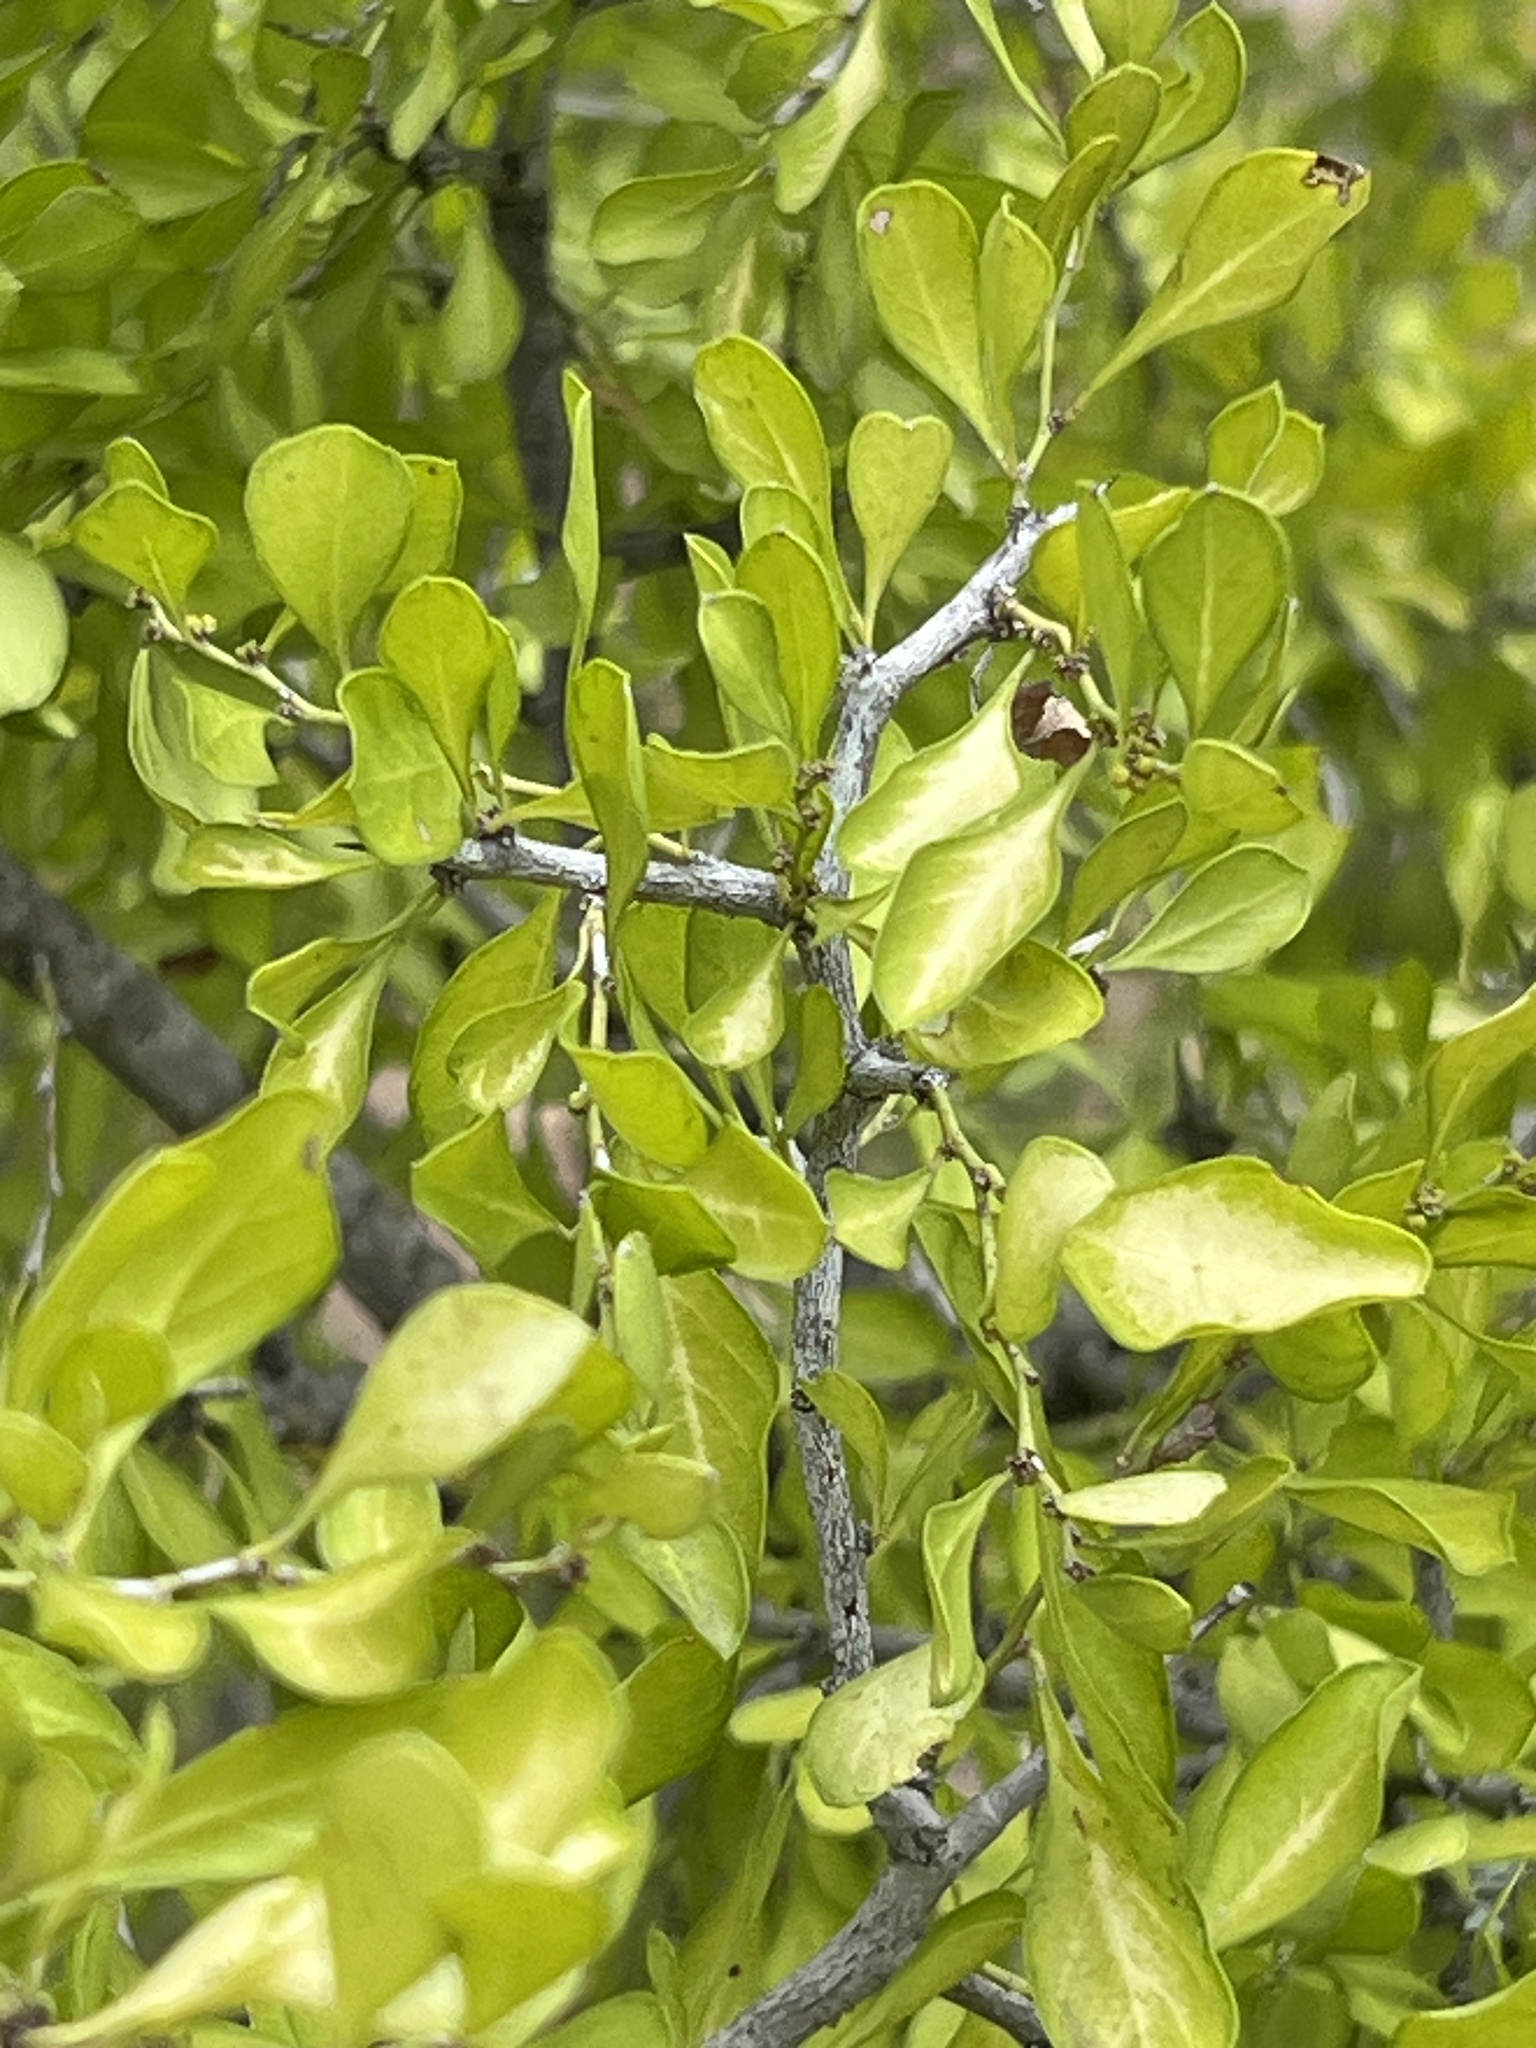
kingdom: Plantae
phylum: Tracheophyta
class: Magnoliopsida
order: Rosales
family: Rhamnaceae
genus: Condalia
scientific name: Condalia hookeri
